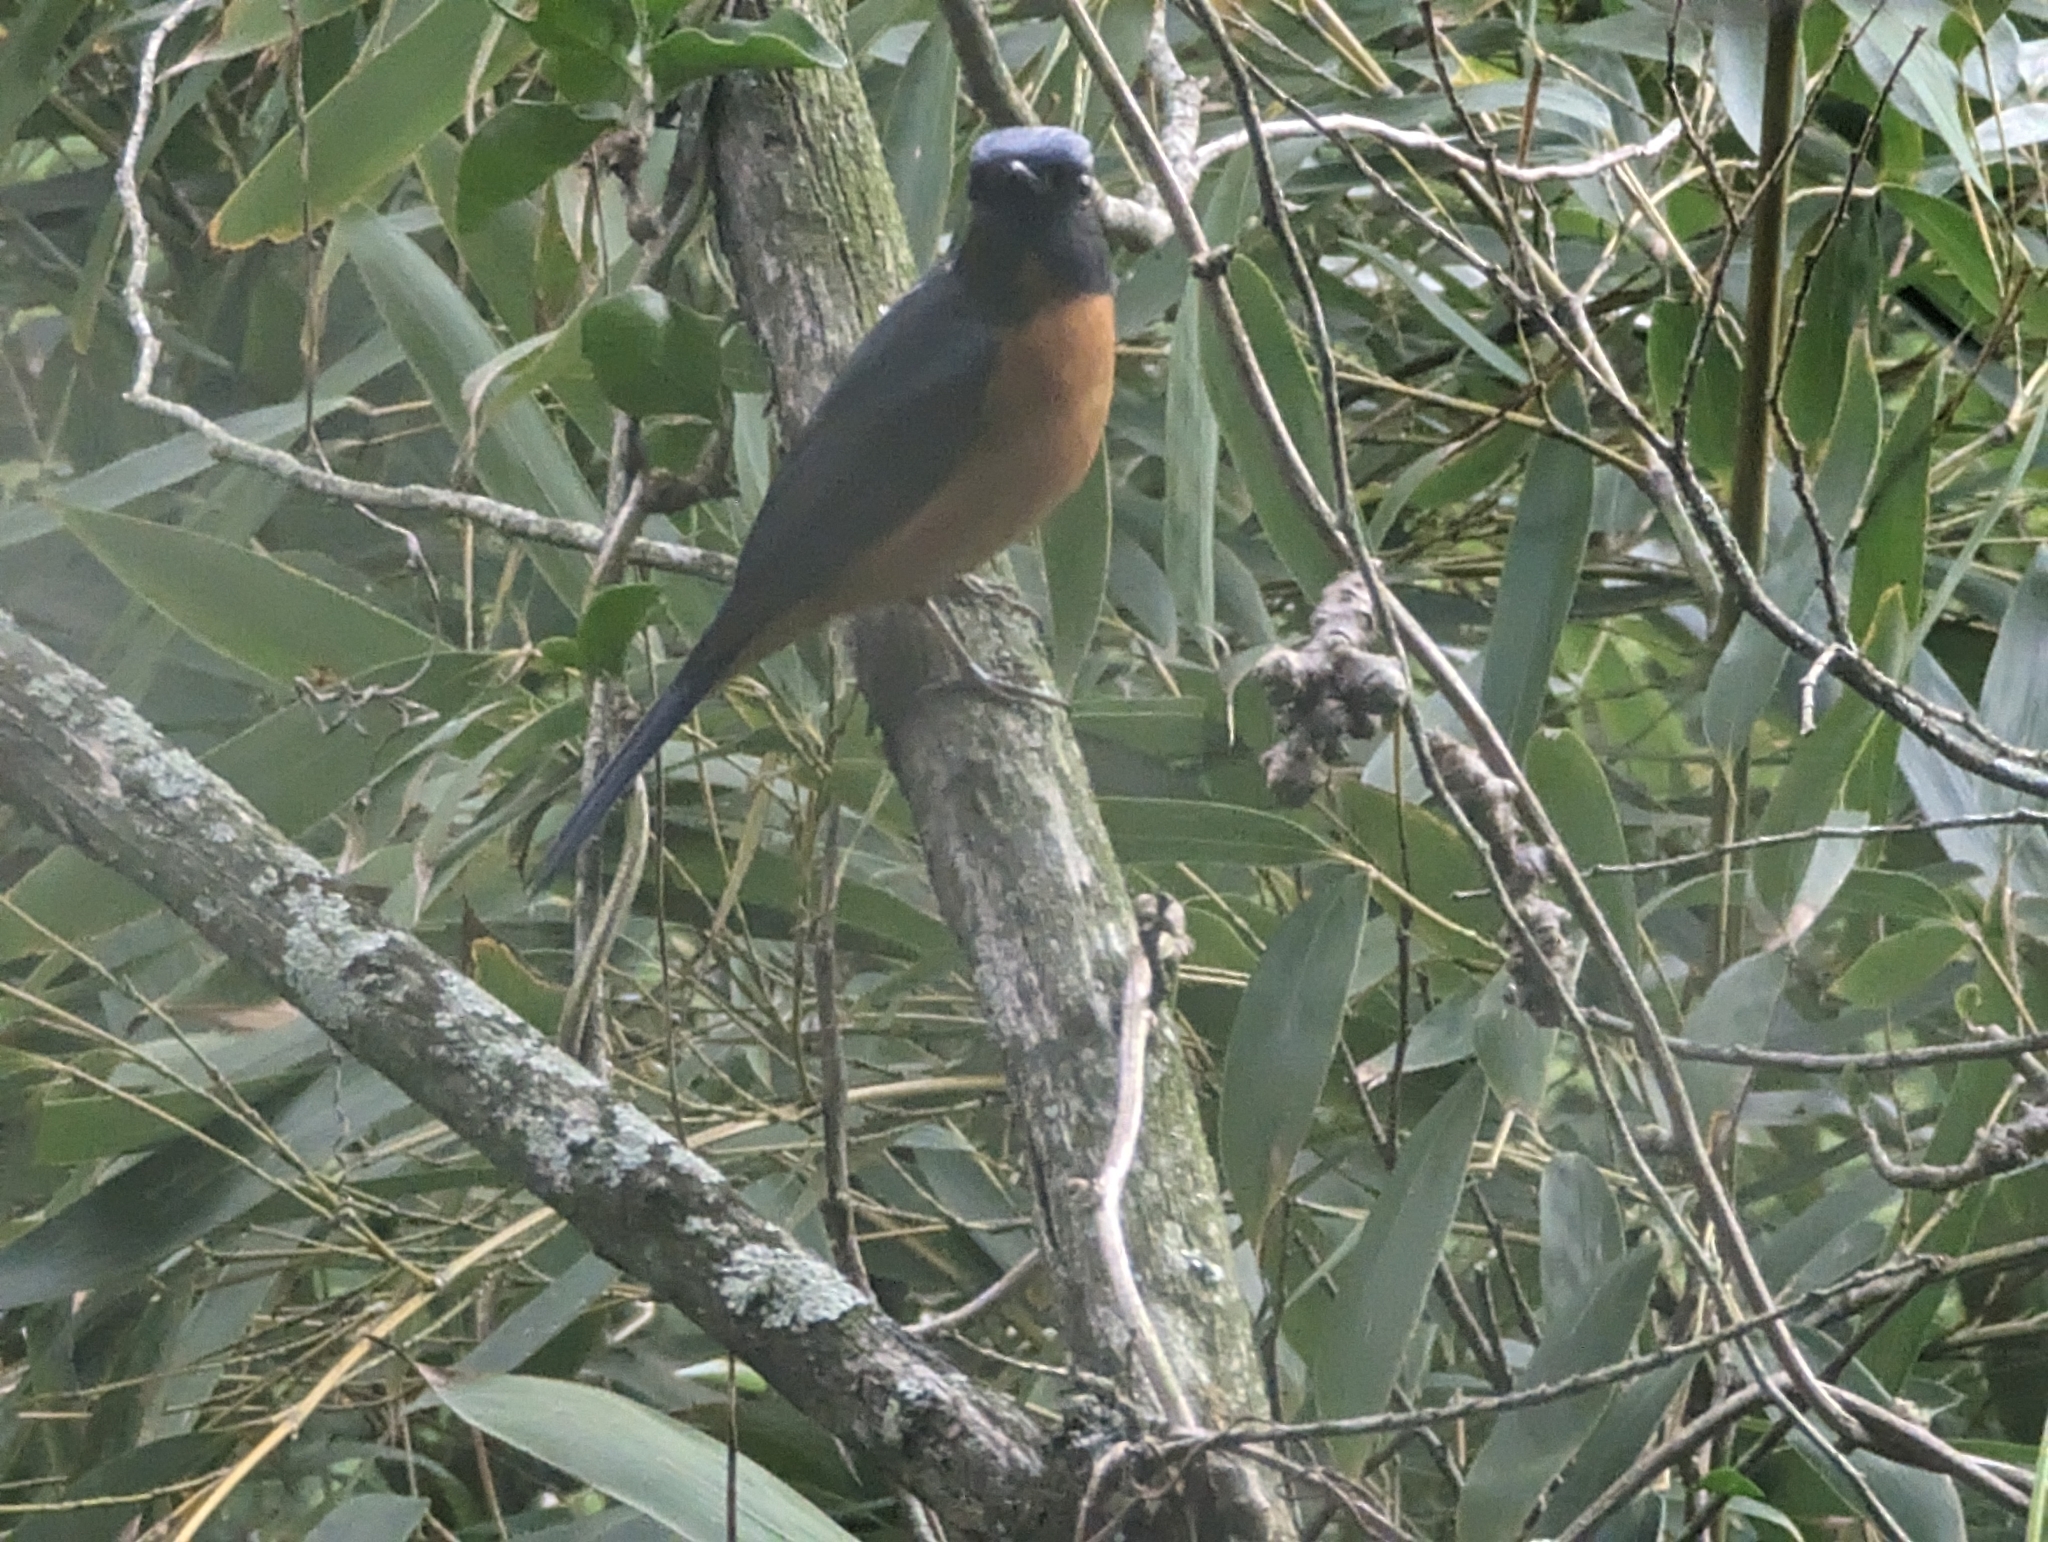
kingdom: Animalia
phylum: Chordata
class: Aves
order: Passeriformes
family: Muscicapidae
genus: Niltava
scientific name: Niltava vivida
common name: Vivid niltava
